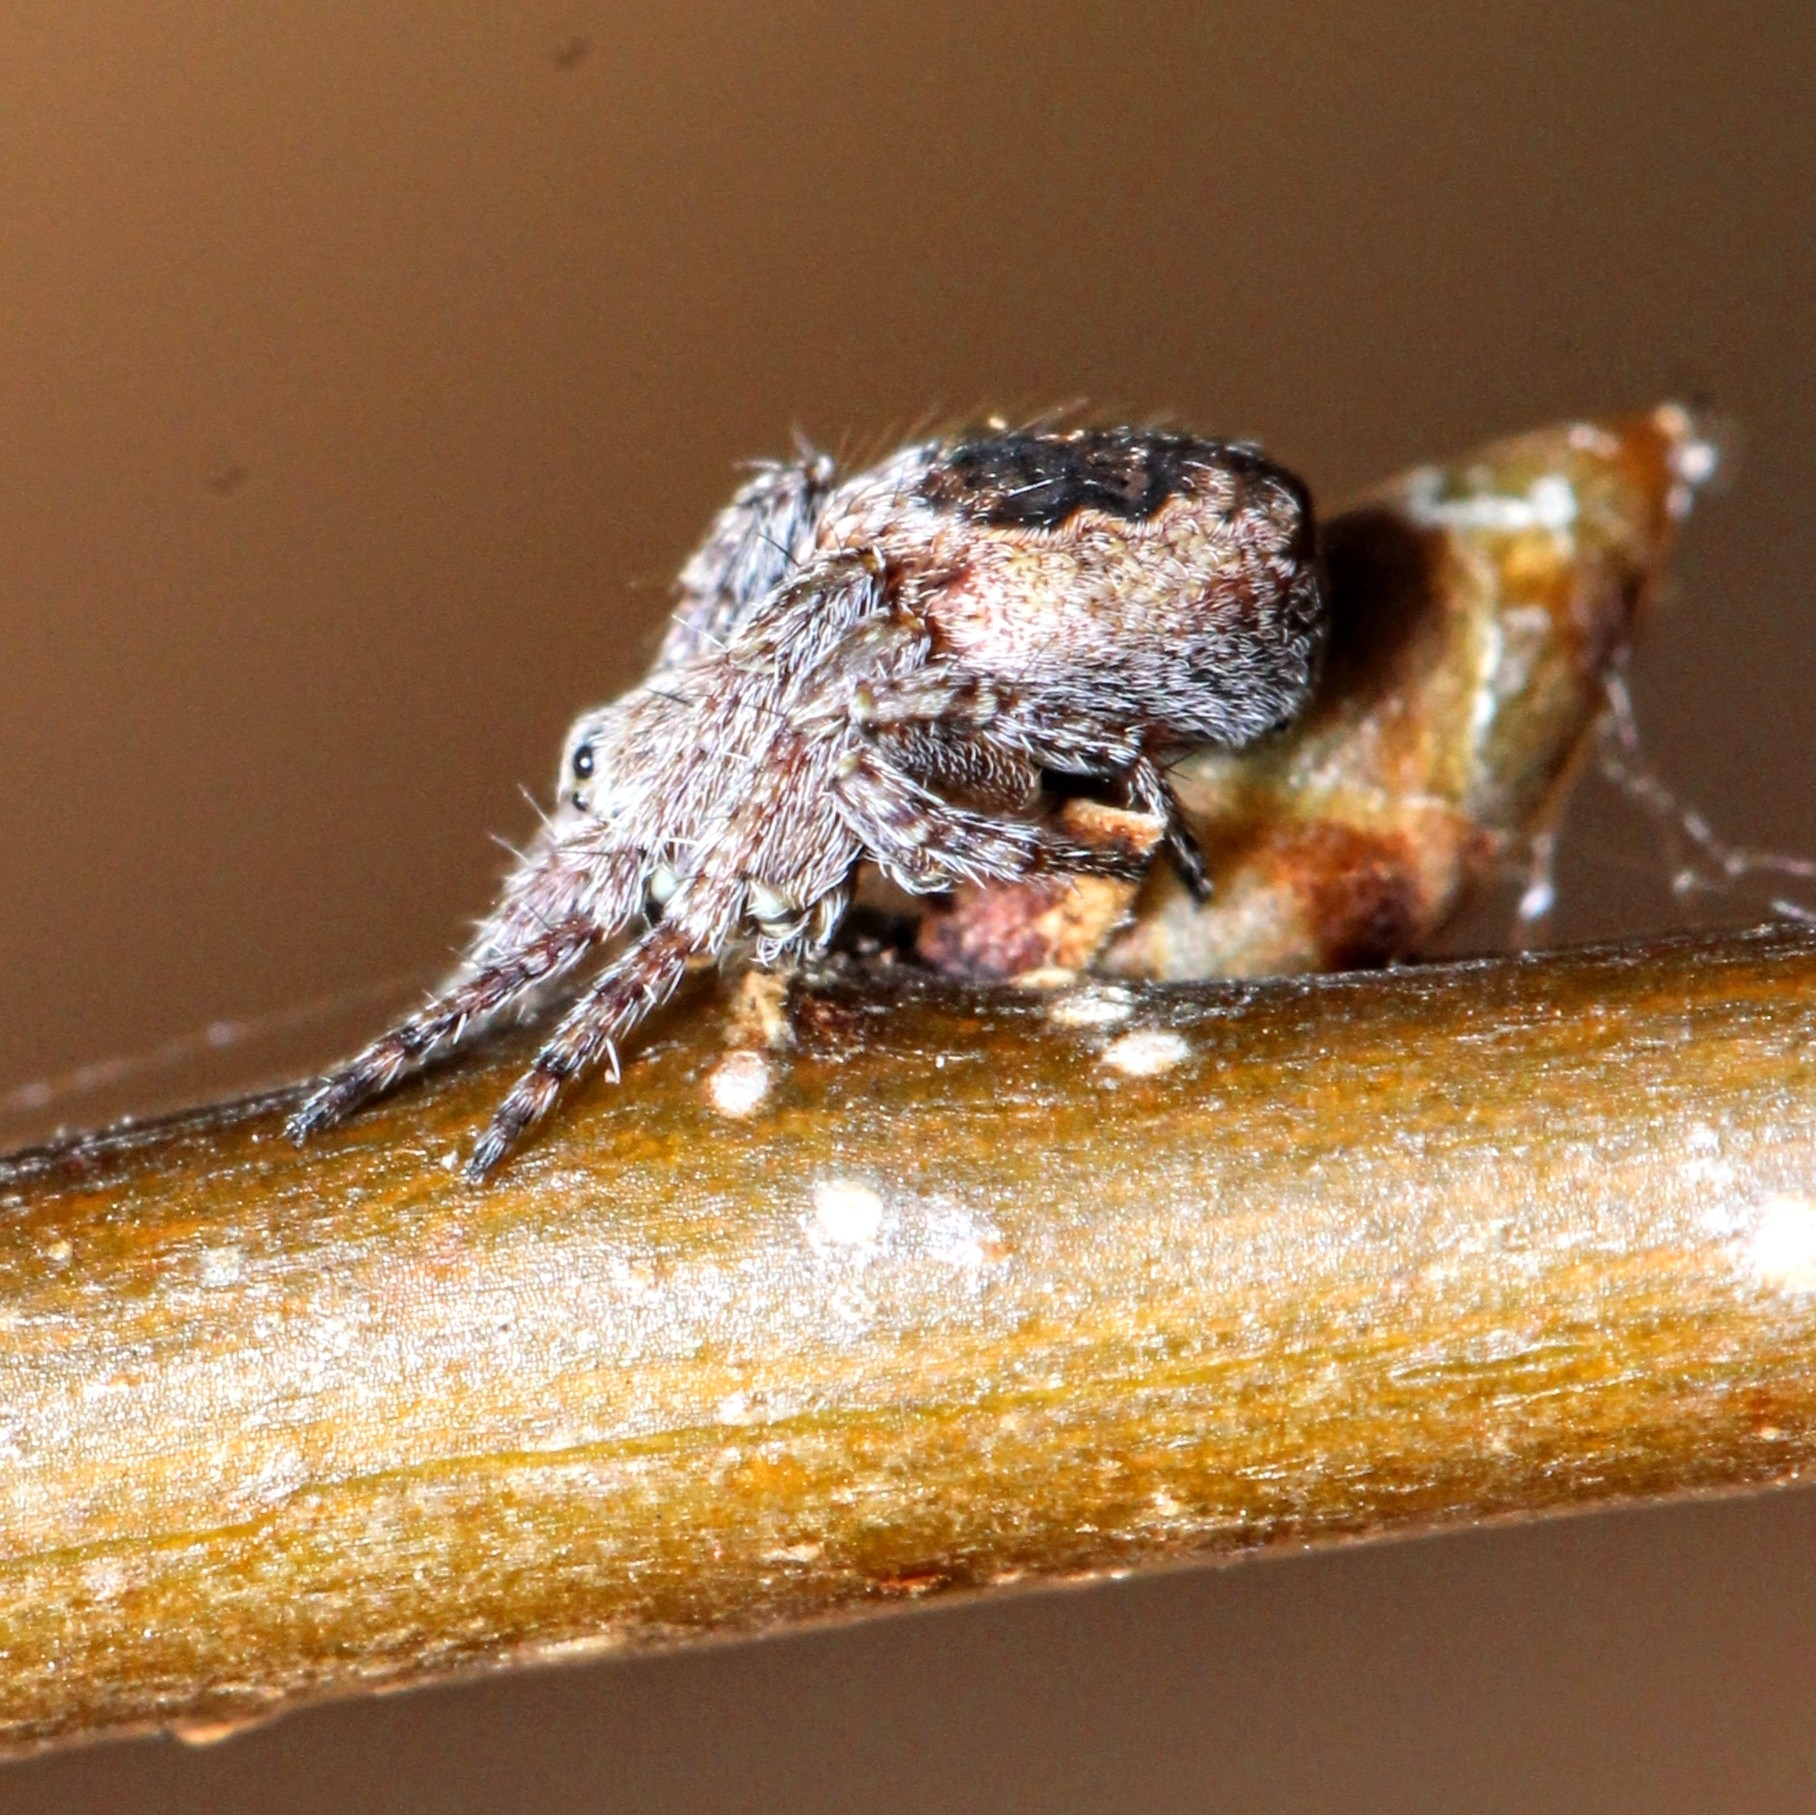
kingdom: Animalia
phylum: Arthropoda
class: Arachnida
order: Araneae
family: Araneidae
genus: Eustala
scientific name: Eustala anastera
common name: Orb weavers
